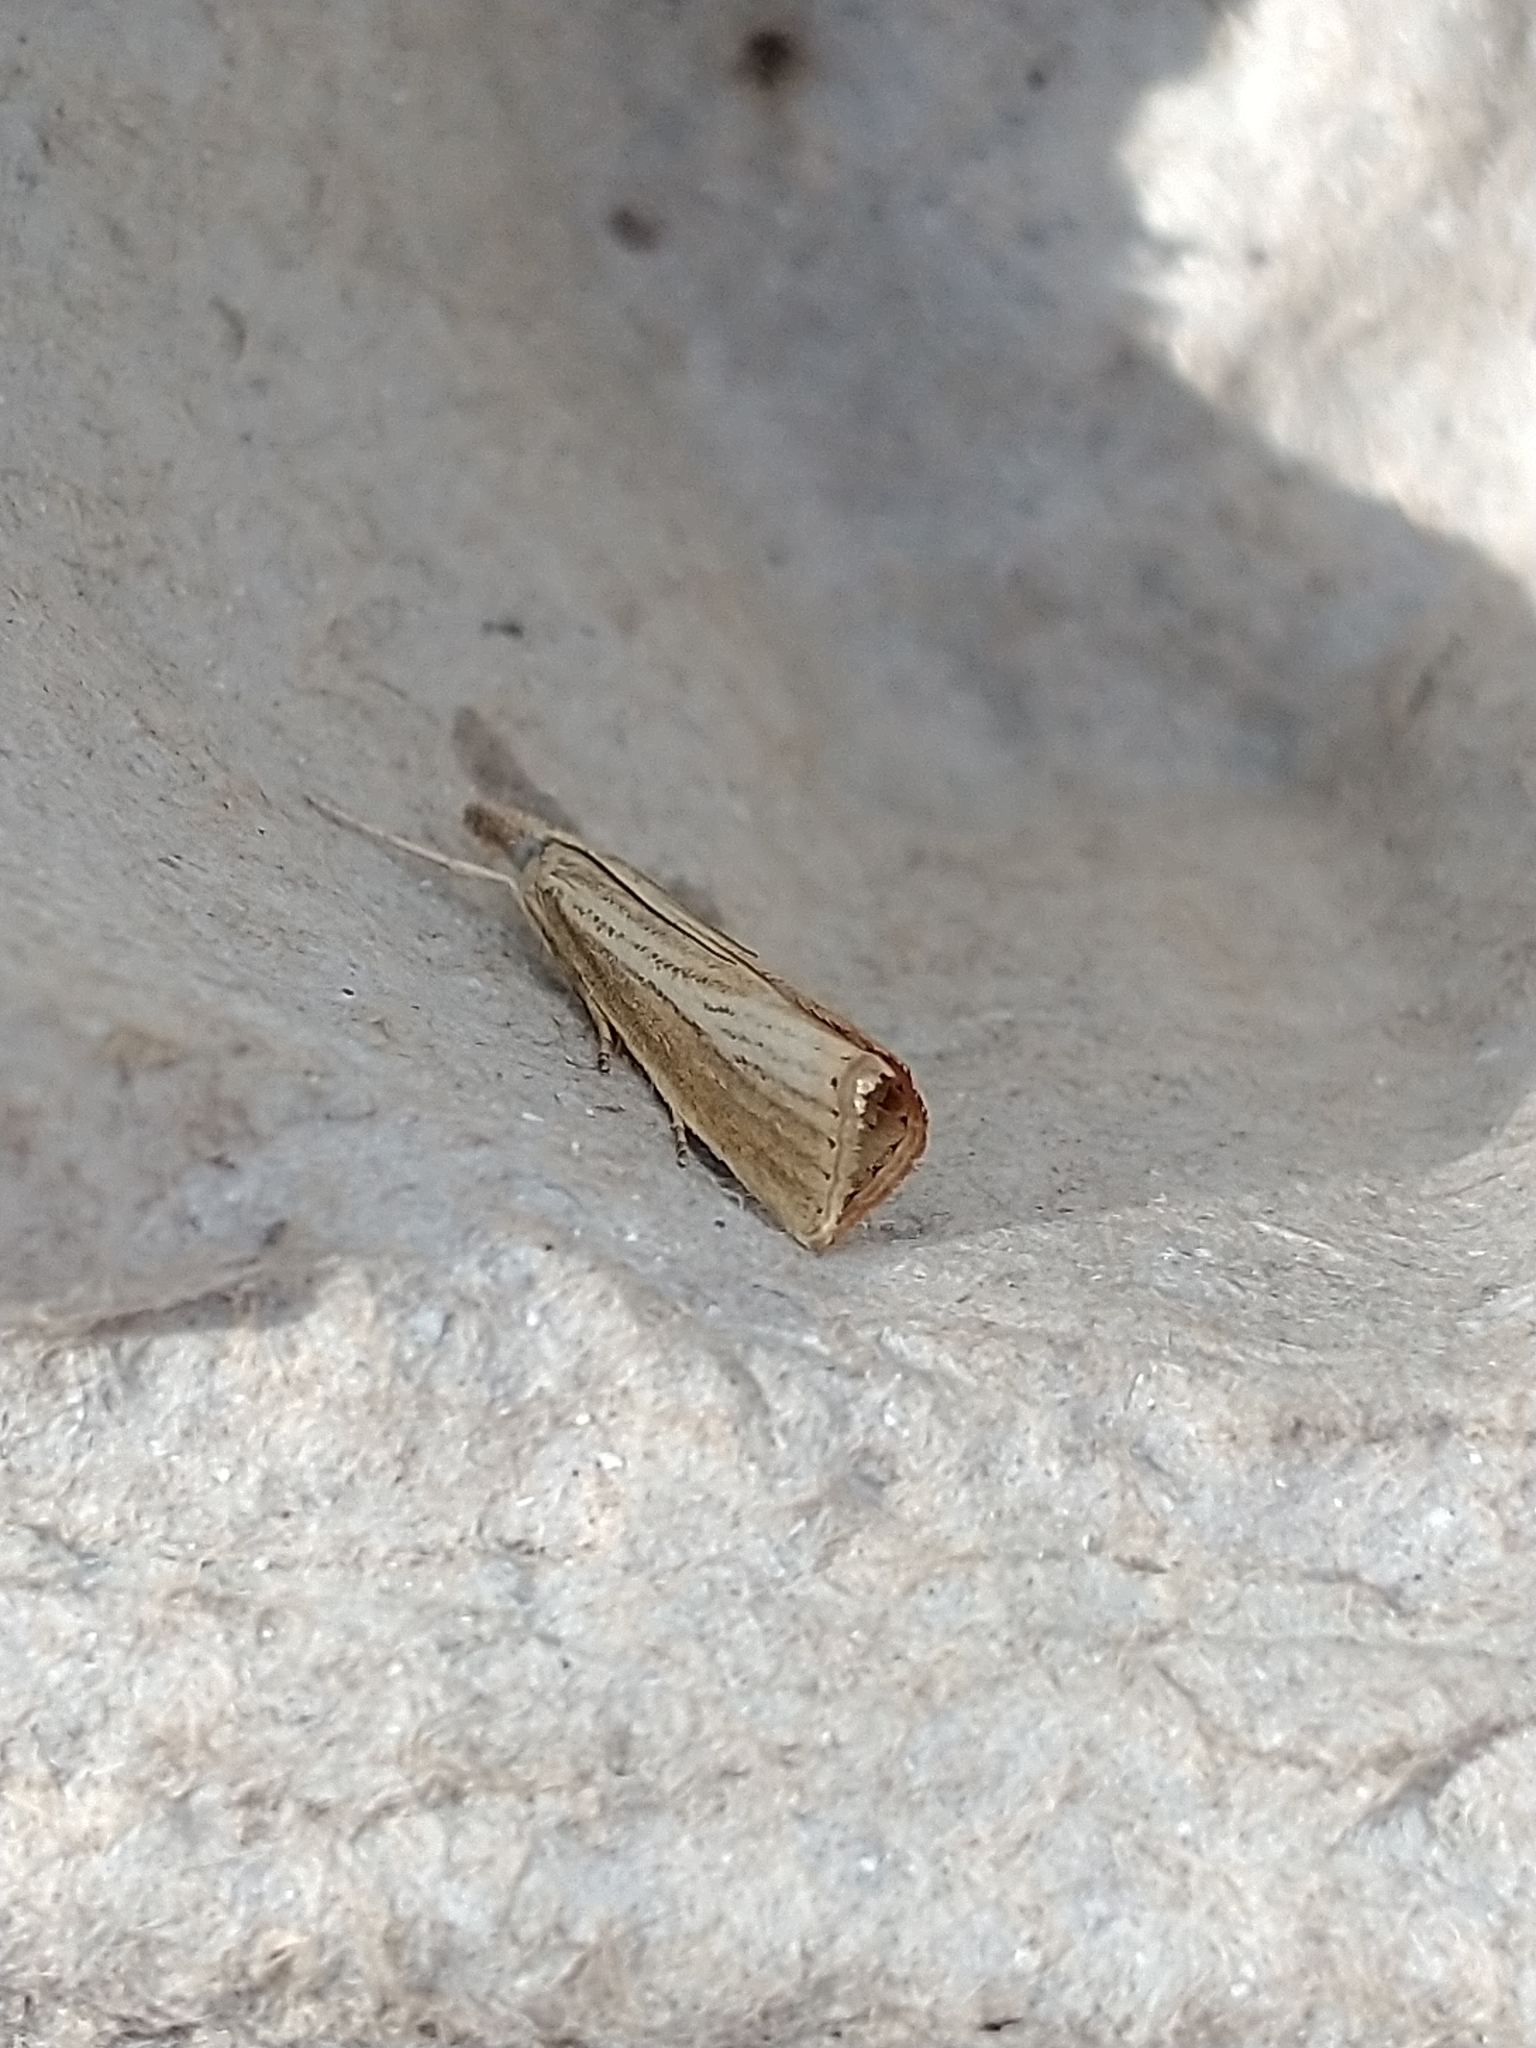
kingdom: Animalia
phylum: Arthropoda
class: Insecta
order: Lepidoptera
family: Crambidae
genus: Agriphila
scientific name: Agriphila straminella
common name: Straw grass-veneer
